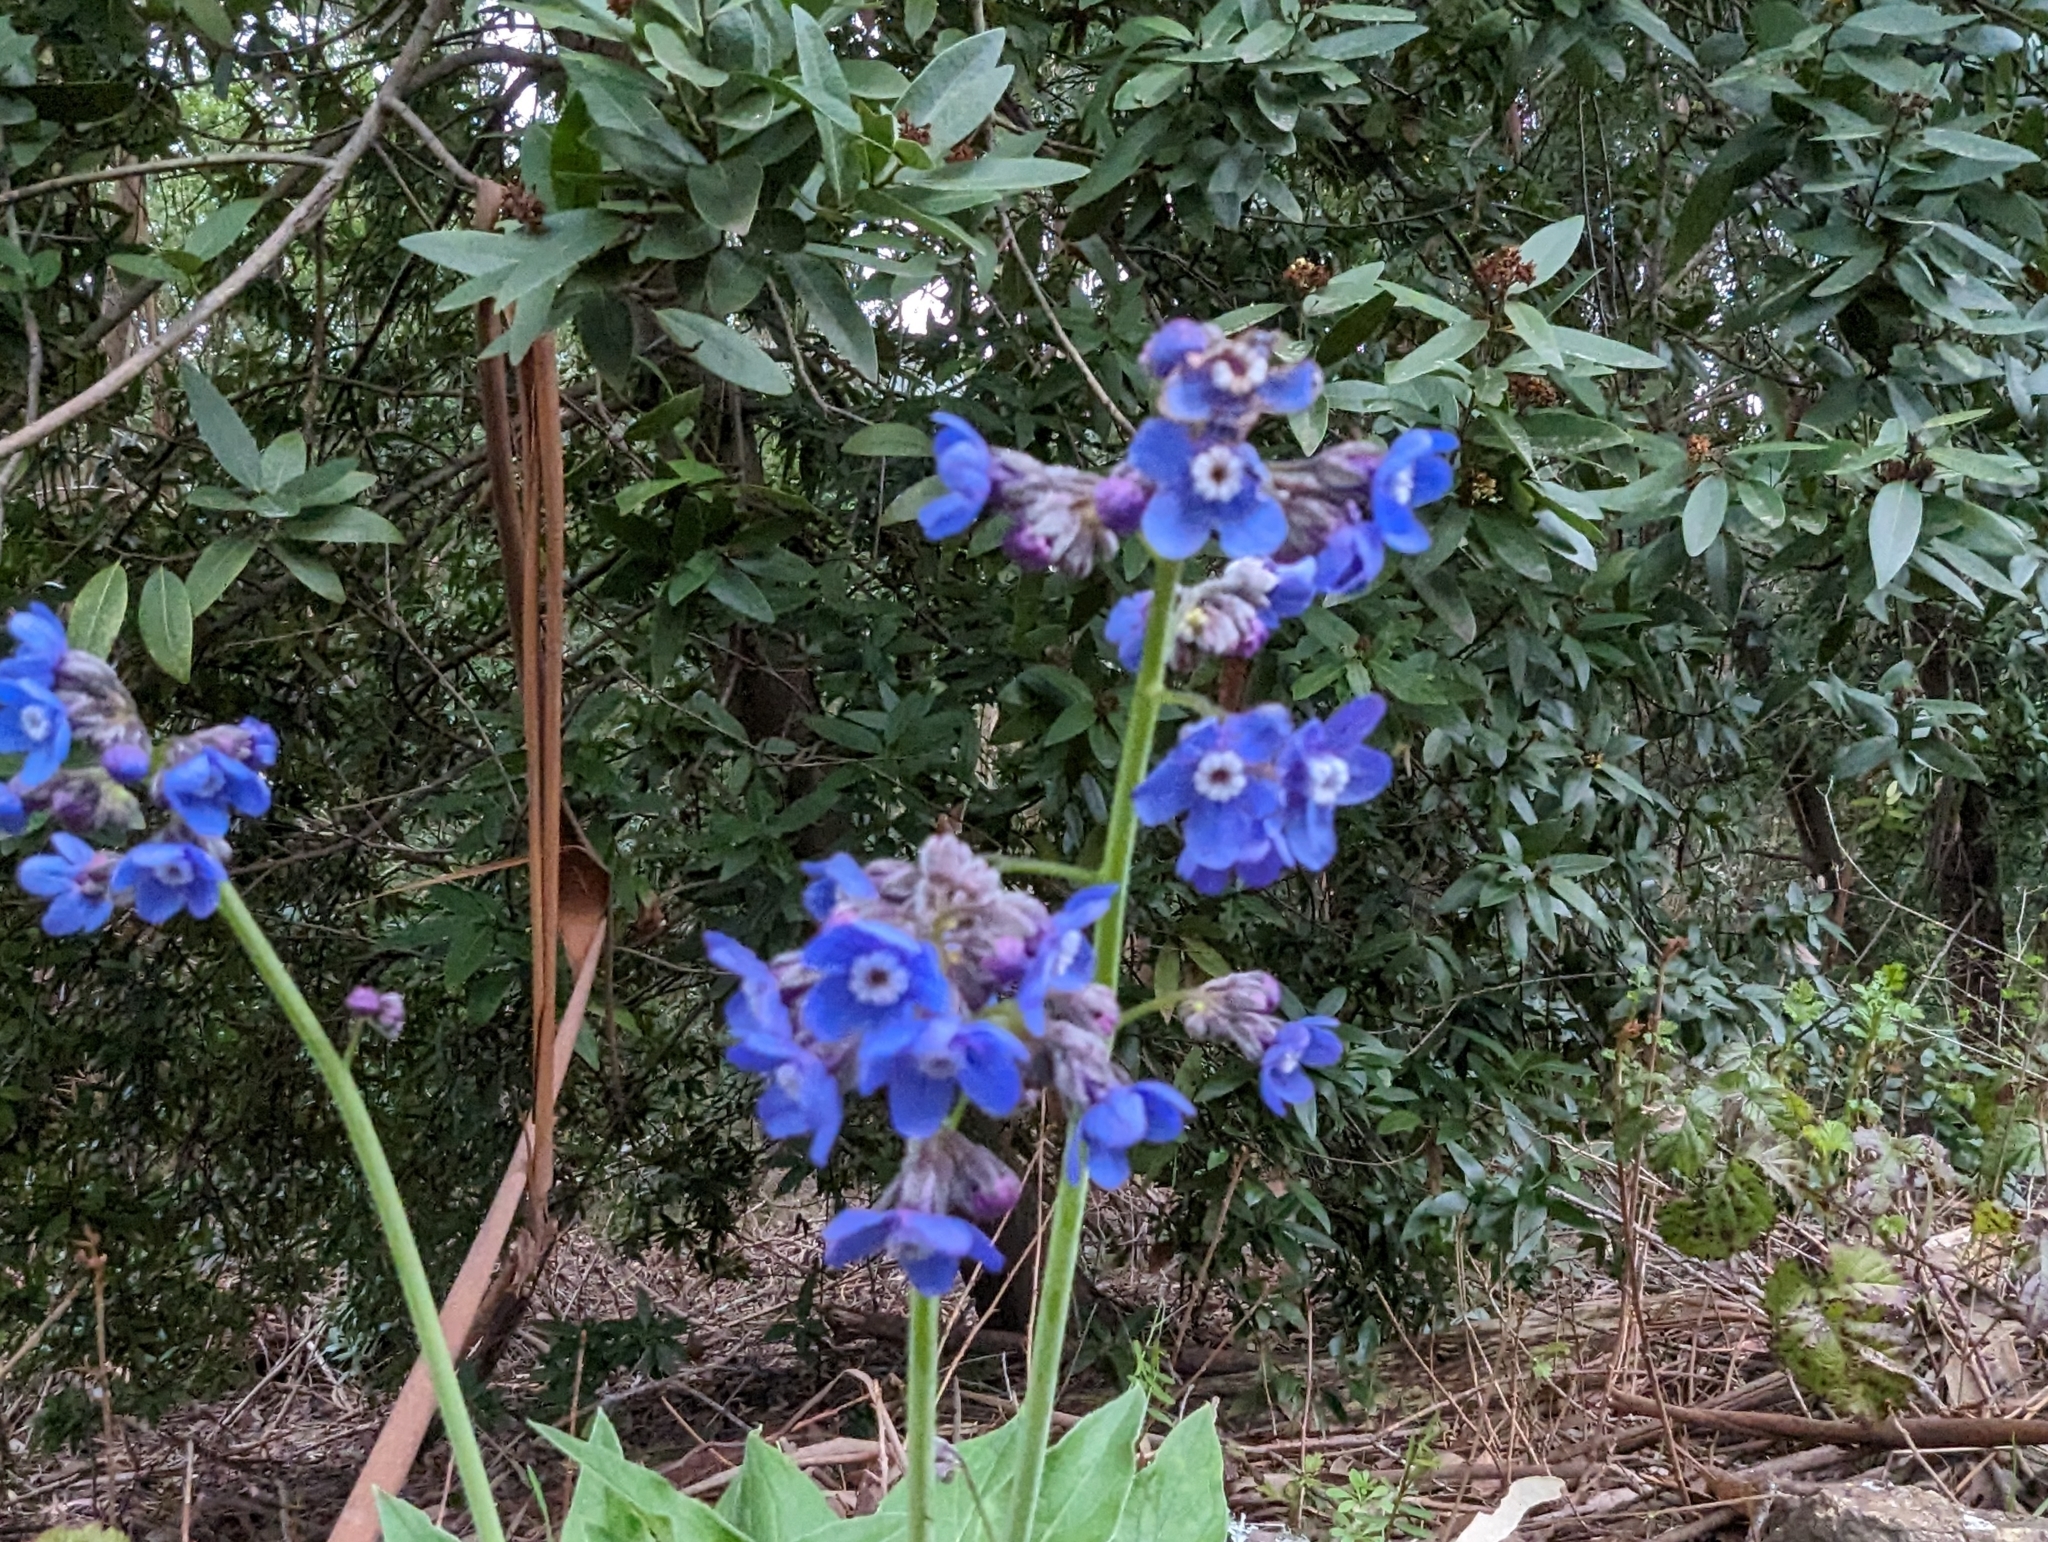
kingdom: Plantae
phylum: Tracheophyta
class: Magnoliopsida
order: Boraginales
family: Boraginaceae
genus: Adelinia
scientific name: Adelinia grande
